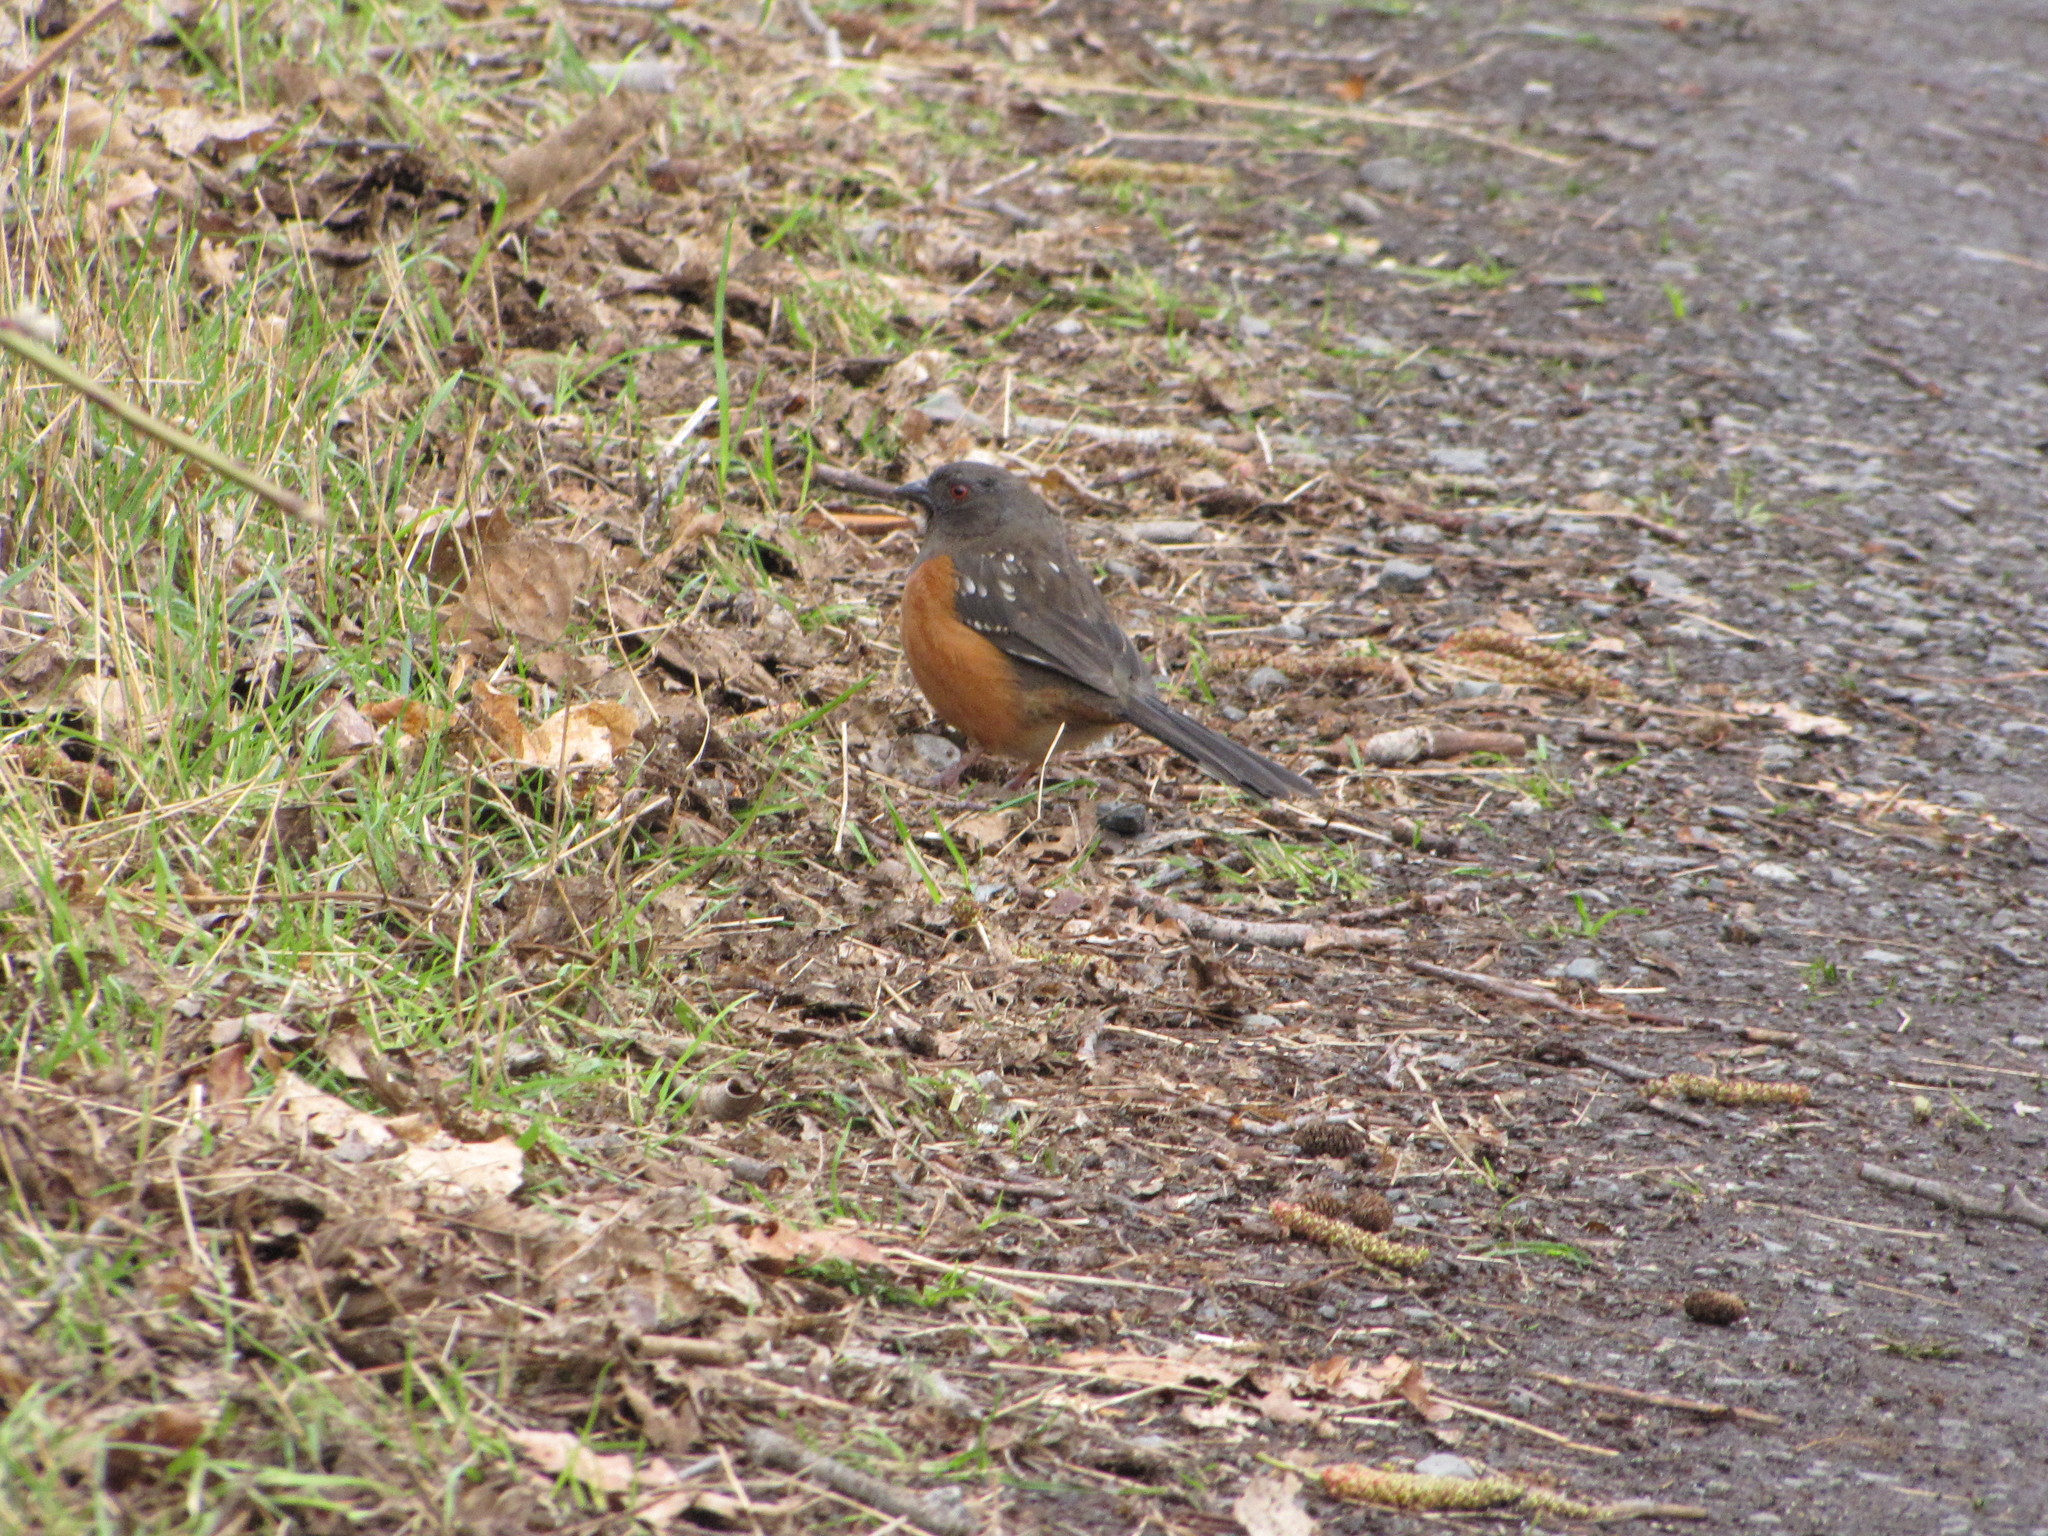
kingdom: Animalia
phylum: Chordata
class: Aves
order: Passeriformes
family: Passerellidae
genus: Pipilo
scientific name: Pipilo maculatus
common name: Spotted towhee
